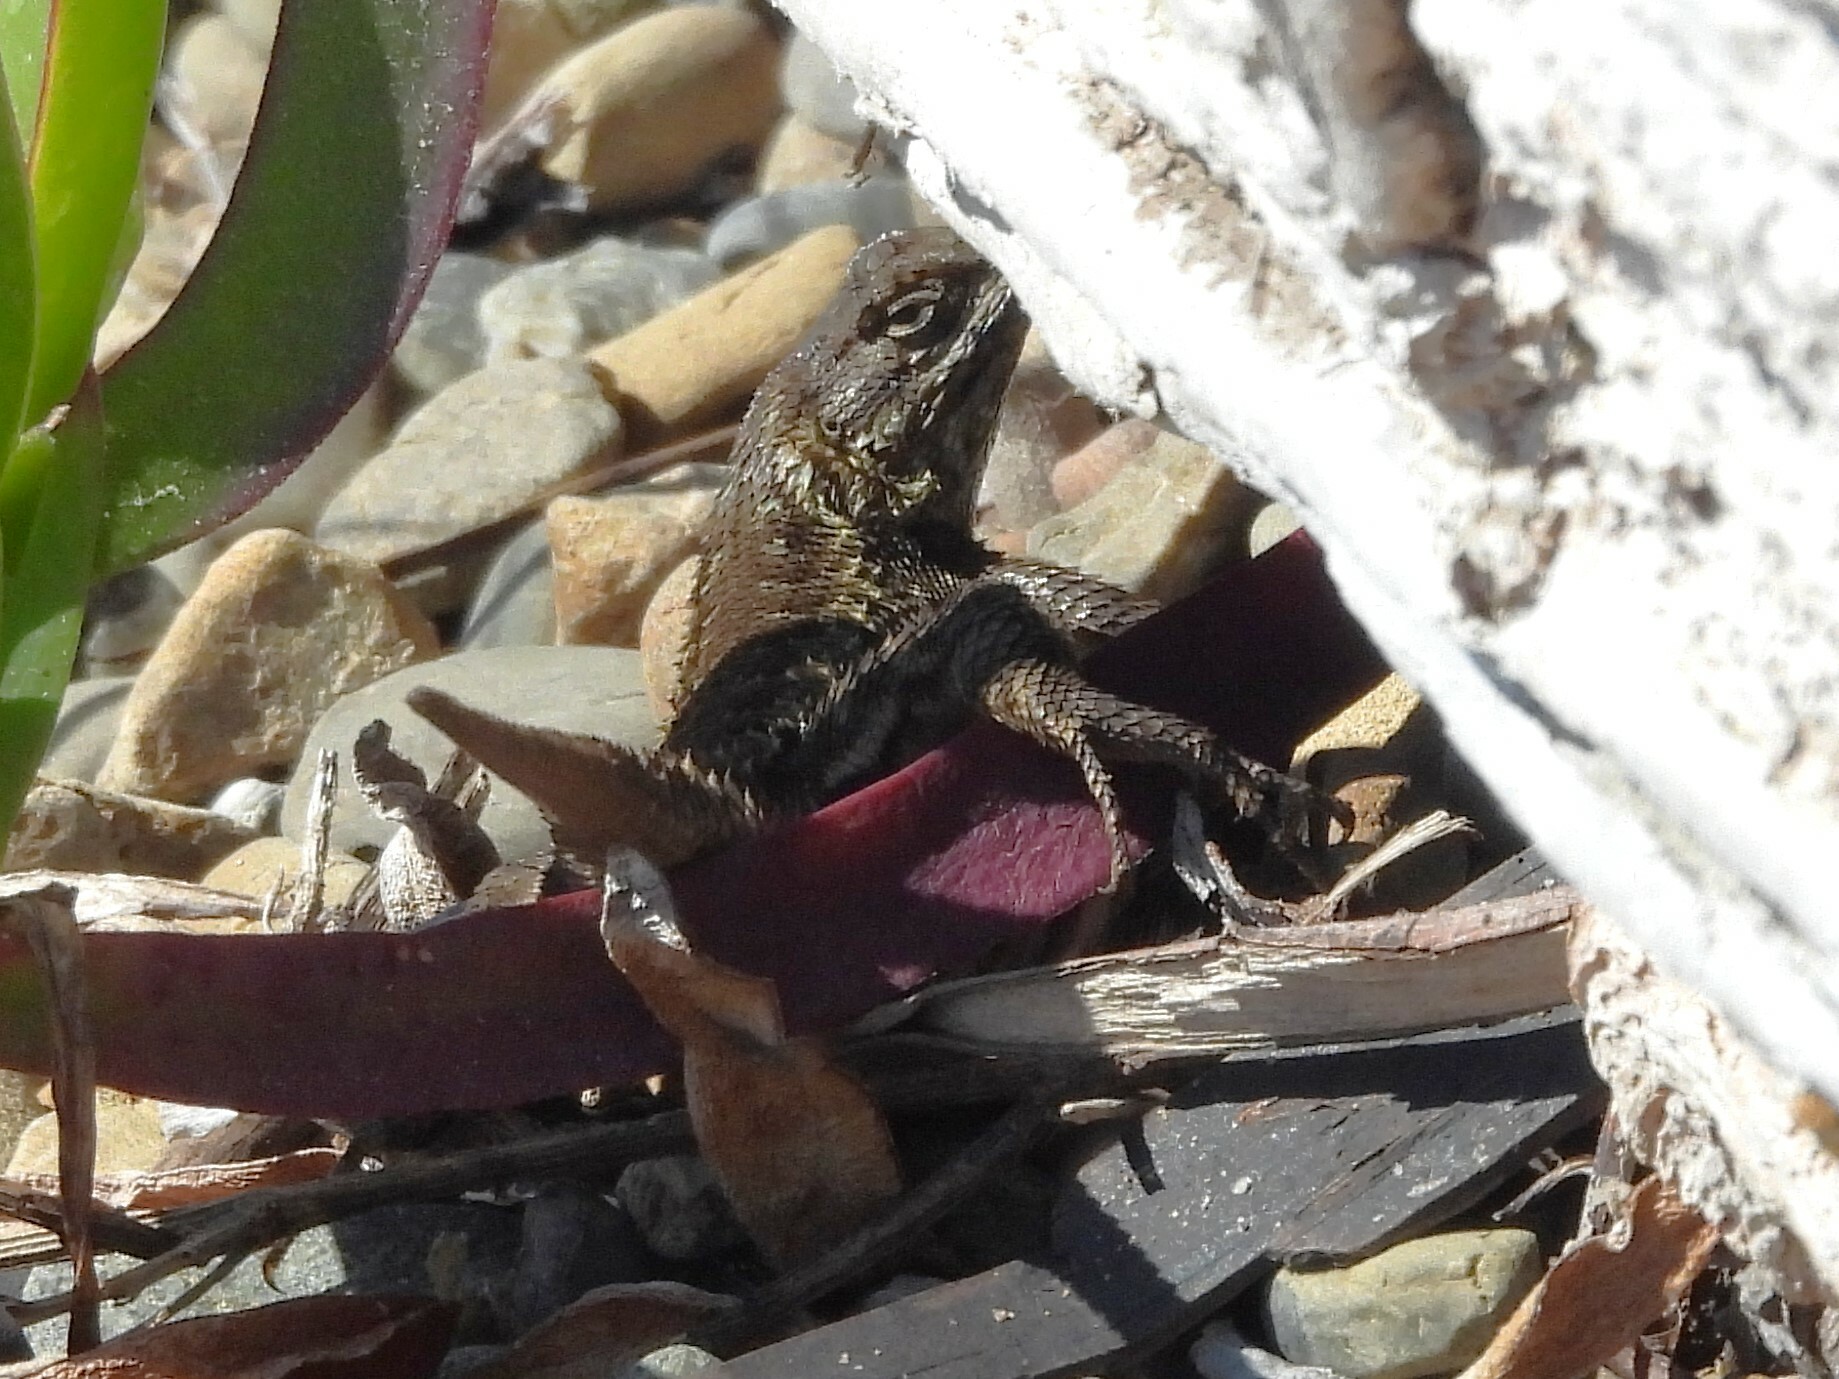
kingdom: Animalia
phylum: Chordata
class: Squamata
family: Phrynosomatidae
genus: Sceloporus
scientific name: Sceloporus occidentalis
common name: Western fence lizard
